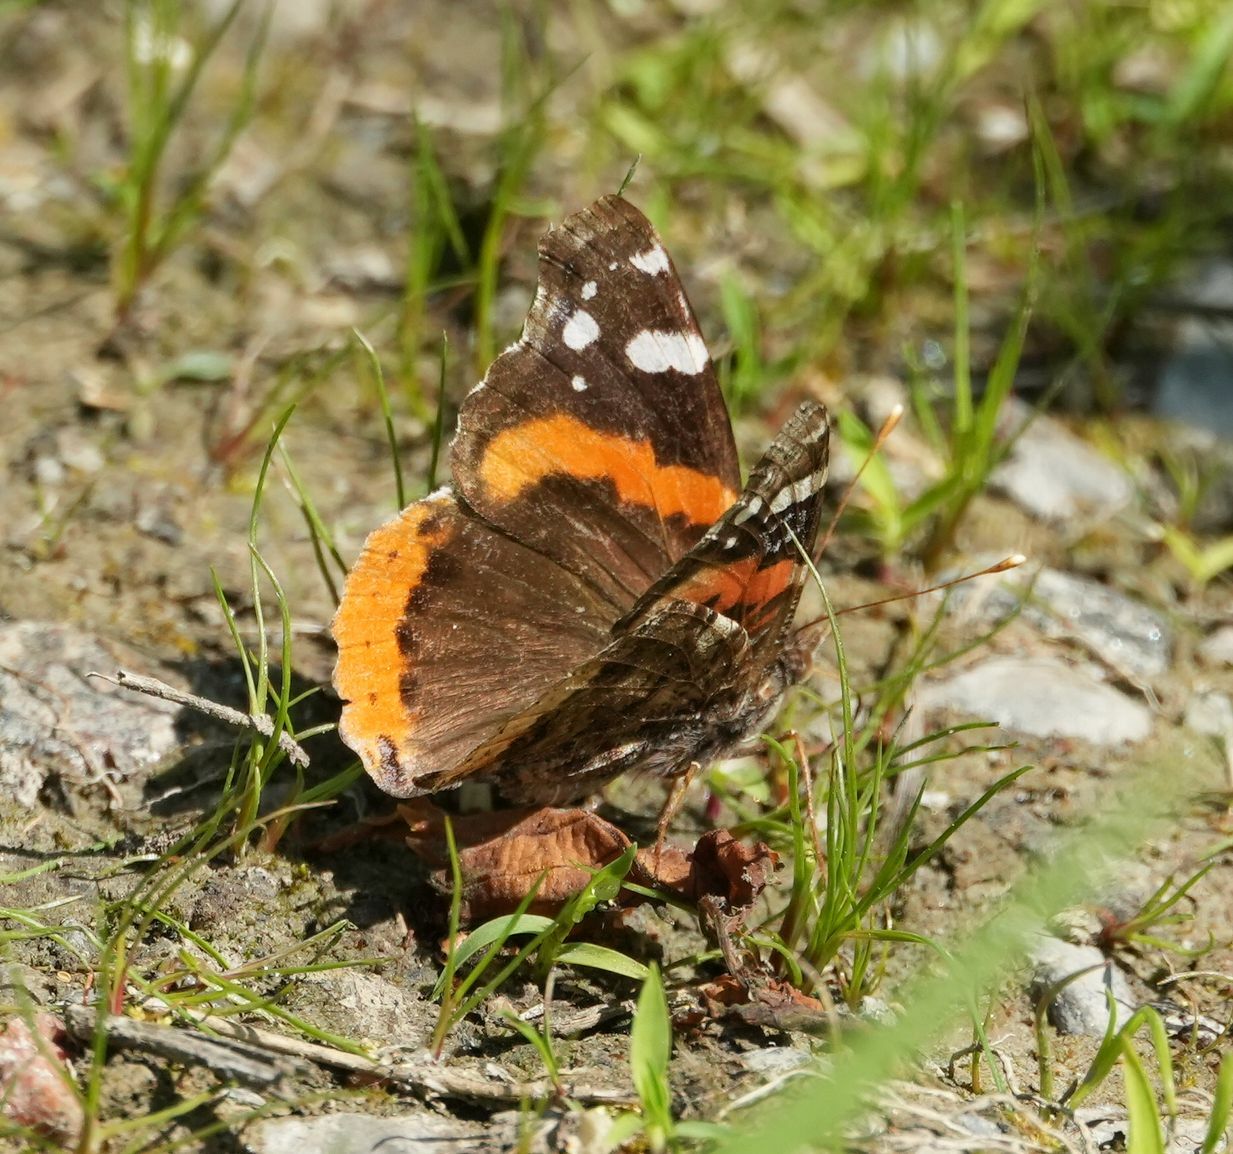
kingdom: Animalia
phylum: Arthropoda
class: Insecta
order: Lepidoptera
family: Nymphalidae
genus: Vanessa
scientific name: Vanessa atalanta
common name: Red admiral
